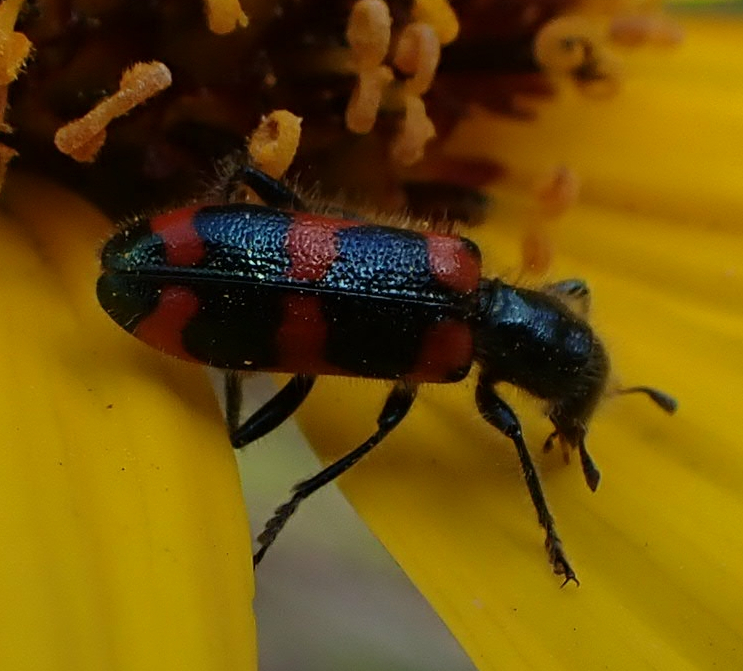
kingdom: Animalia
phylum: Arthropoda
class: Insecta
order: Coleoptera
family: Cleridae
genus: Trichodes
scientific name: Trichodes nutalli
